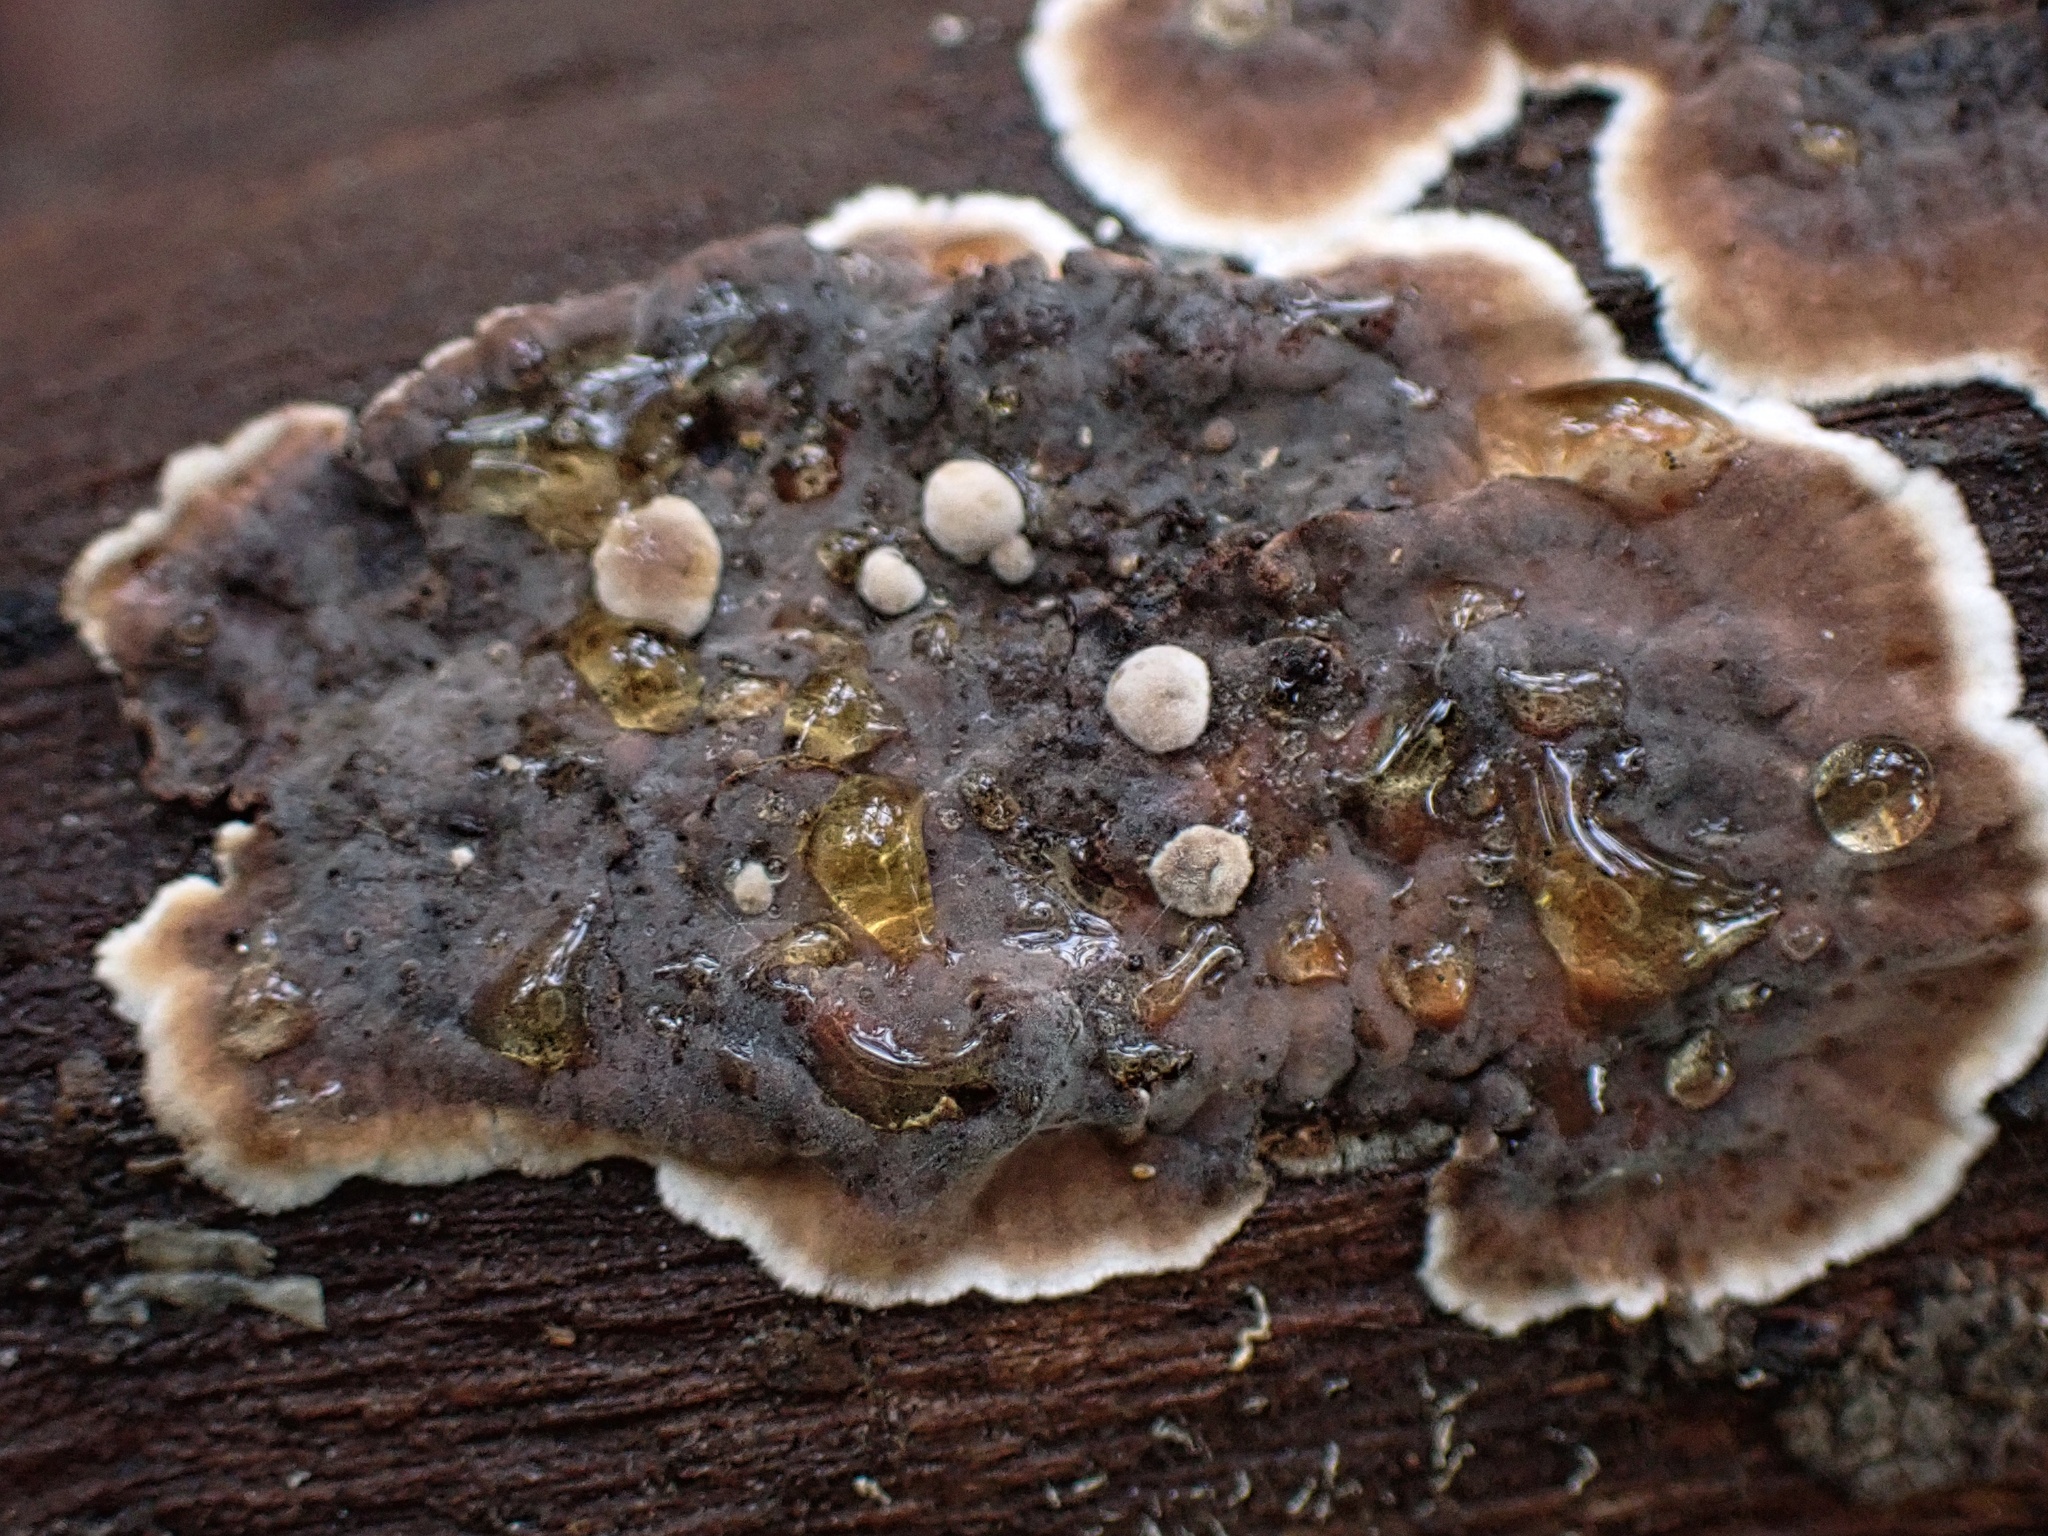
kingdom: Fungi
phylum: Basidiomycota
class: Agaricomycetes
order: Russulales
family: Peniophoraceae
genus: Peniophora
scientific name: Peniophora albobadia
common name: Giraffe spots
